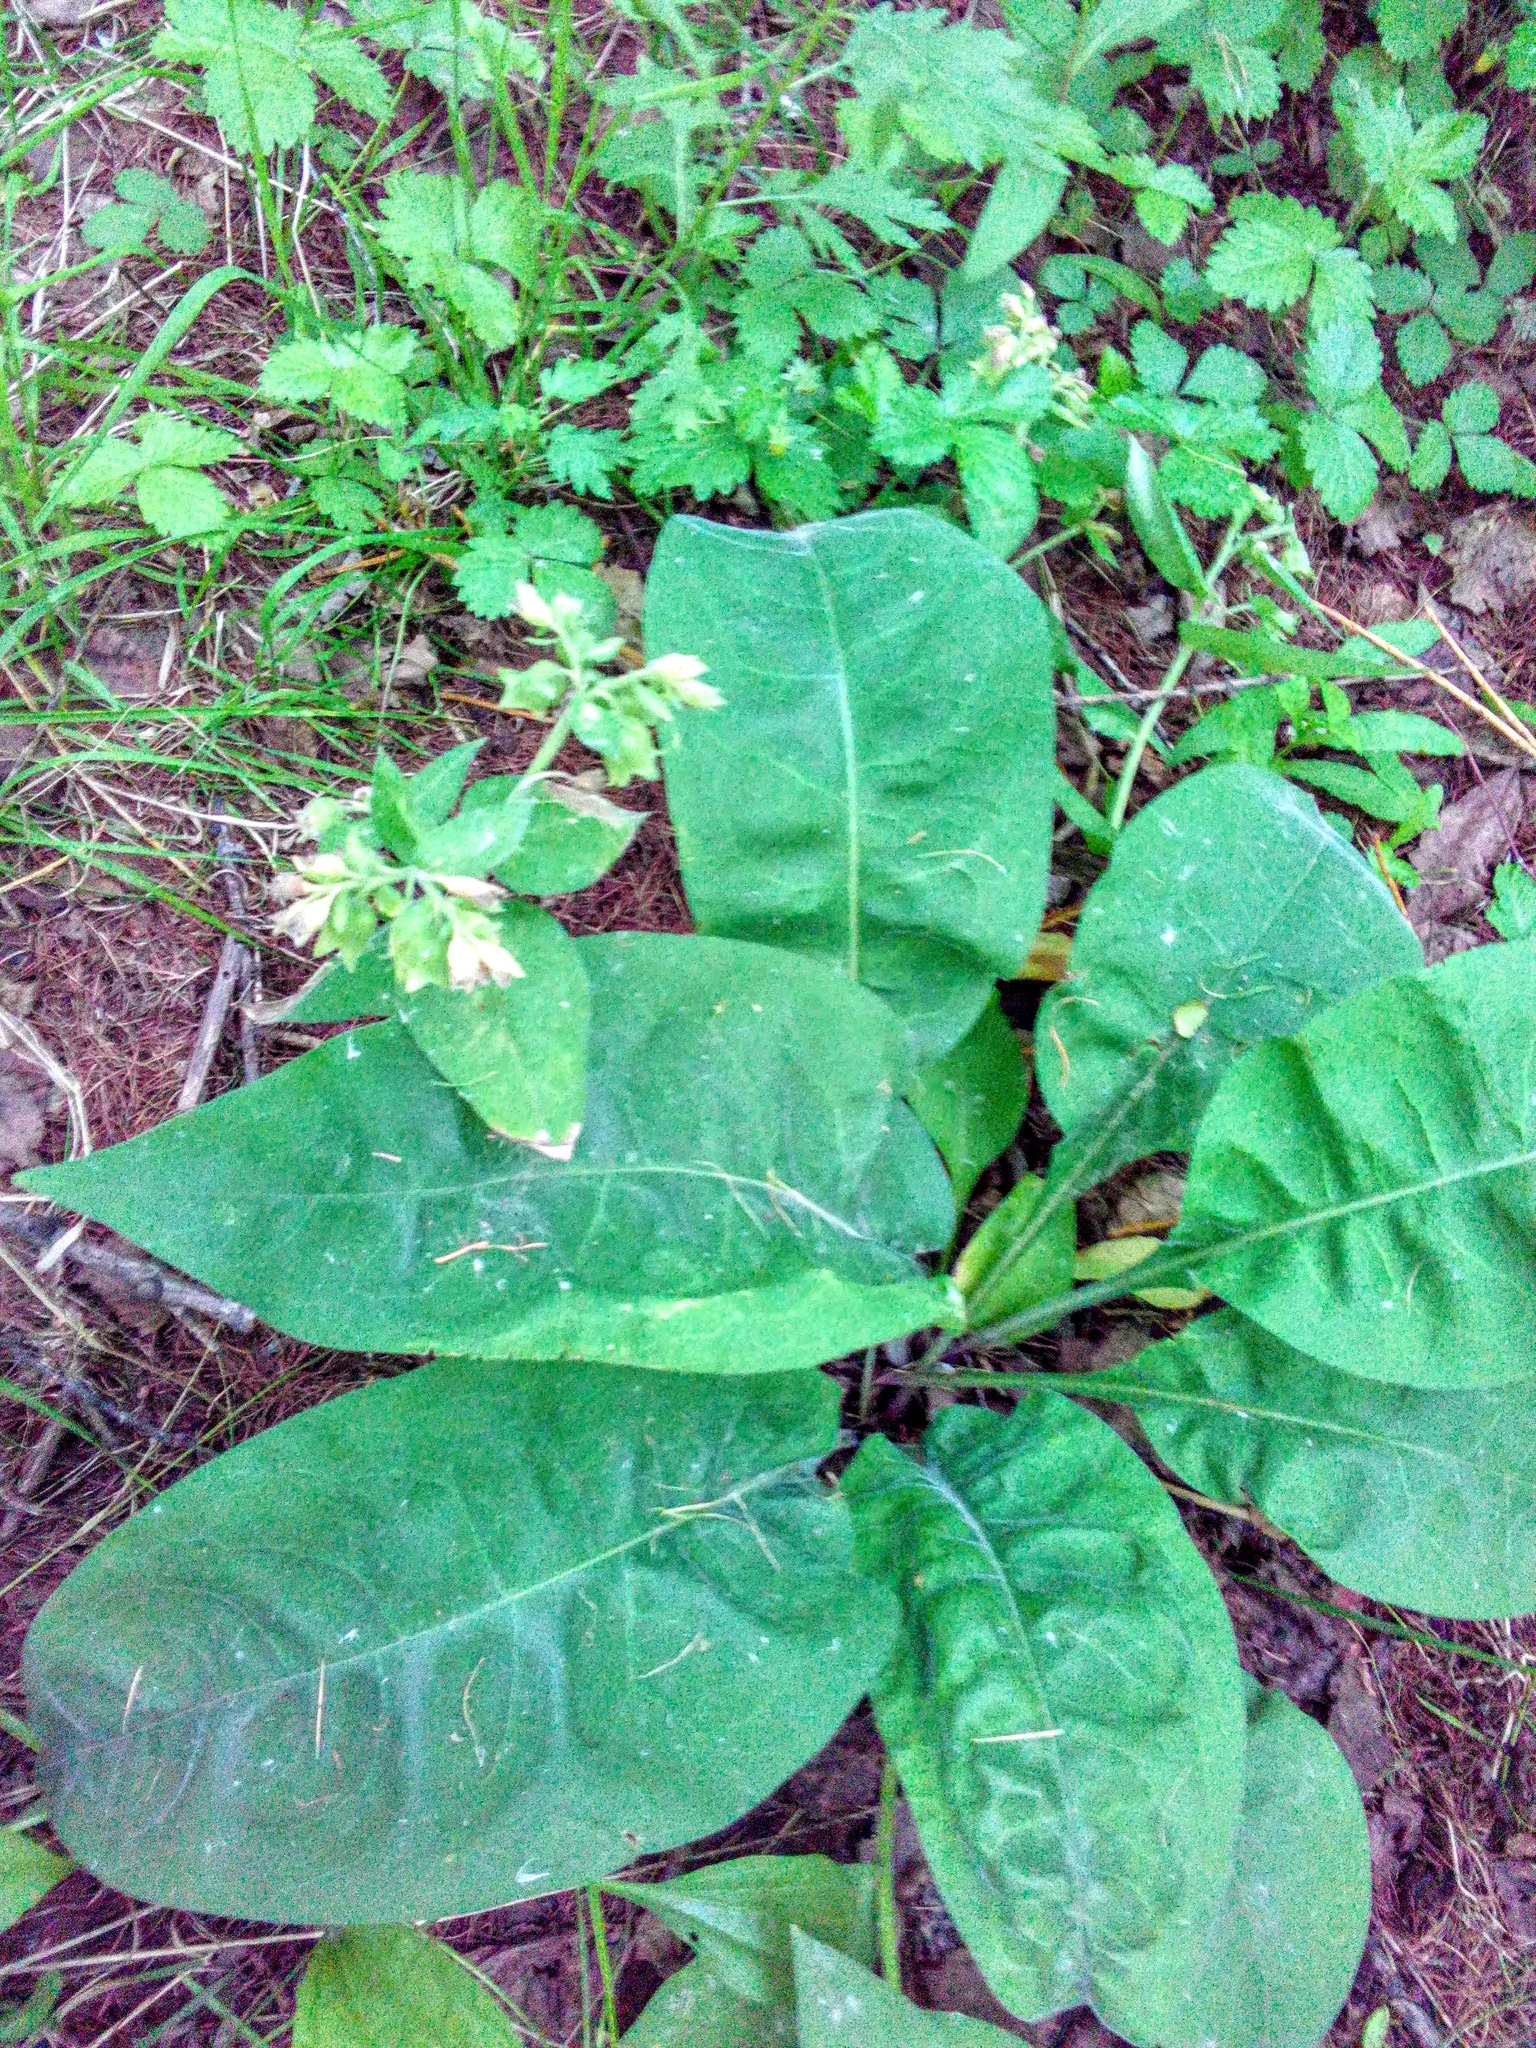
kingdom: Plantae
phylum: Tracheophyta
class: Magnoliopsida
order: Boraginales
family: Boraginaceae
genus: Pulmonaria
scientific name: Pulmonaria mollis
